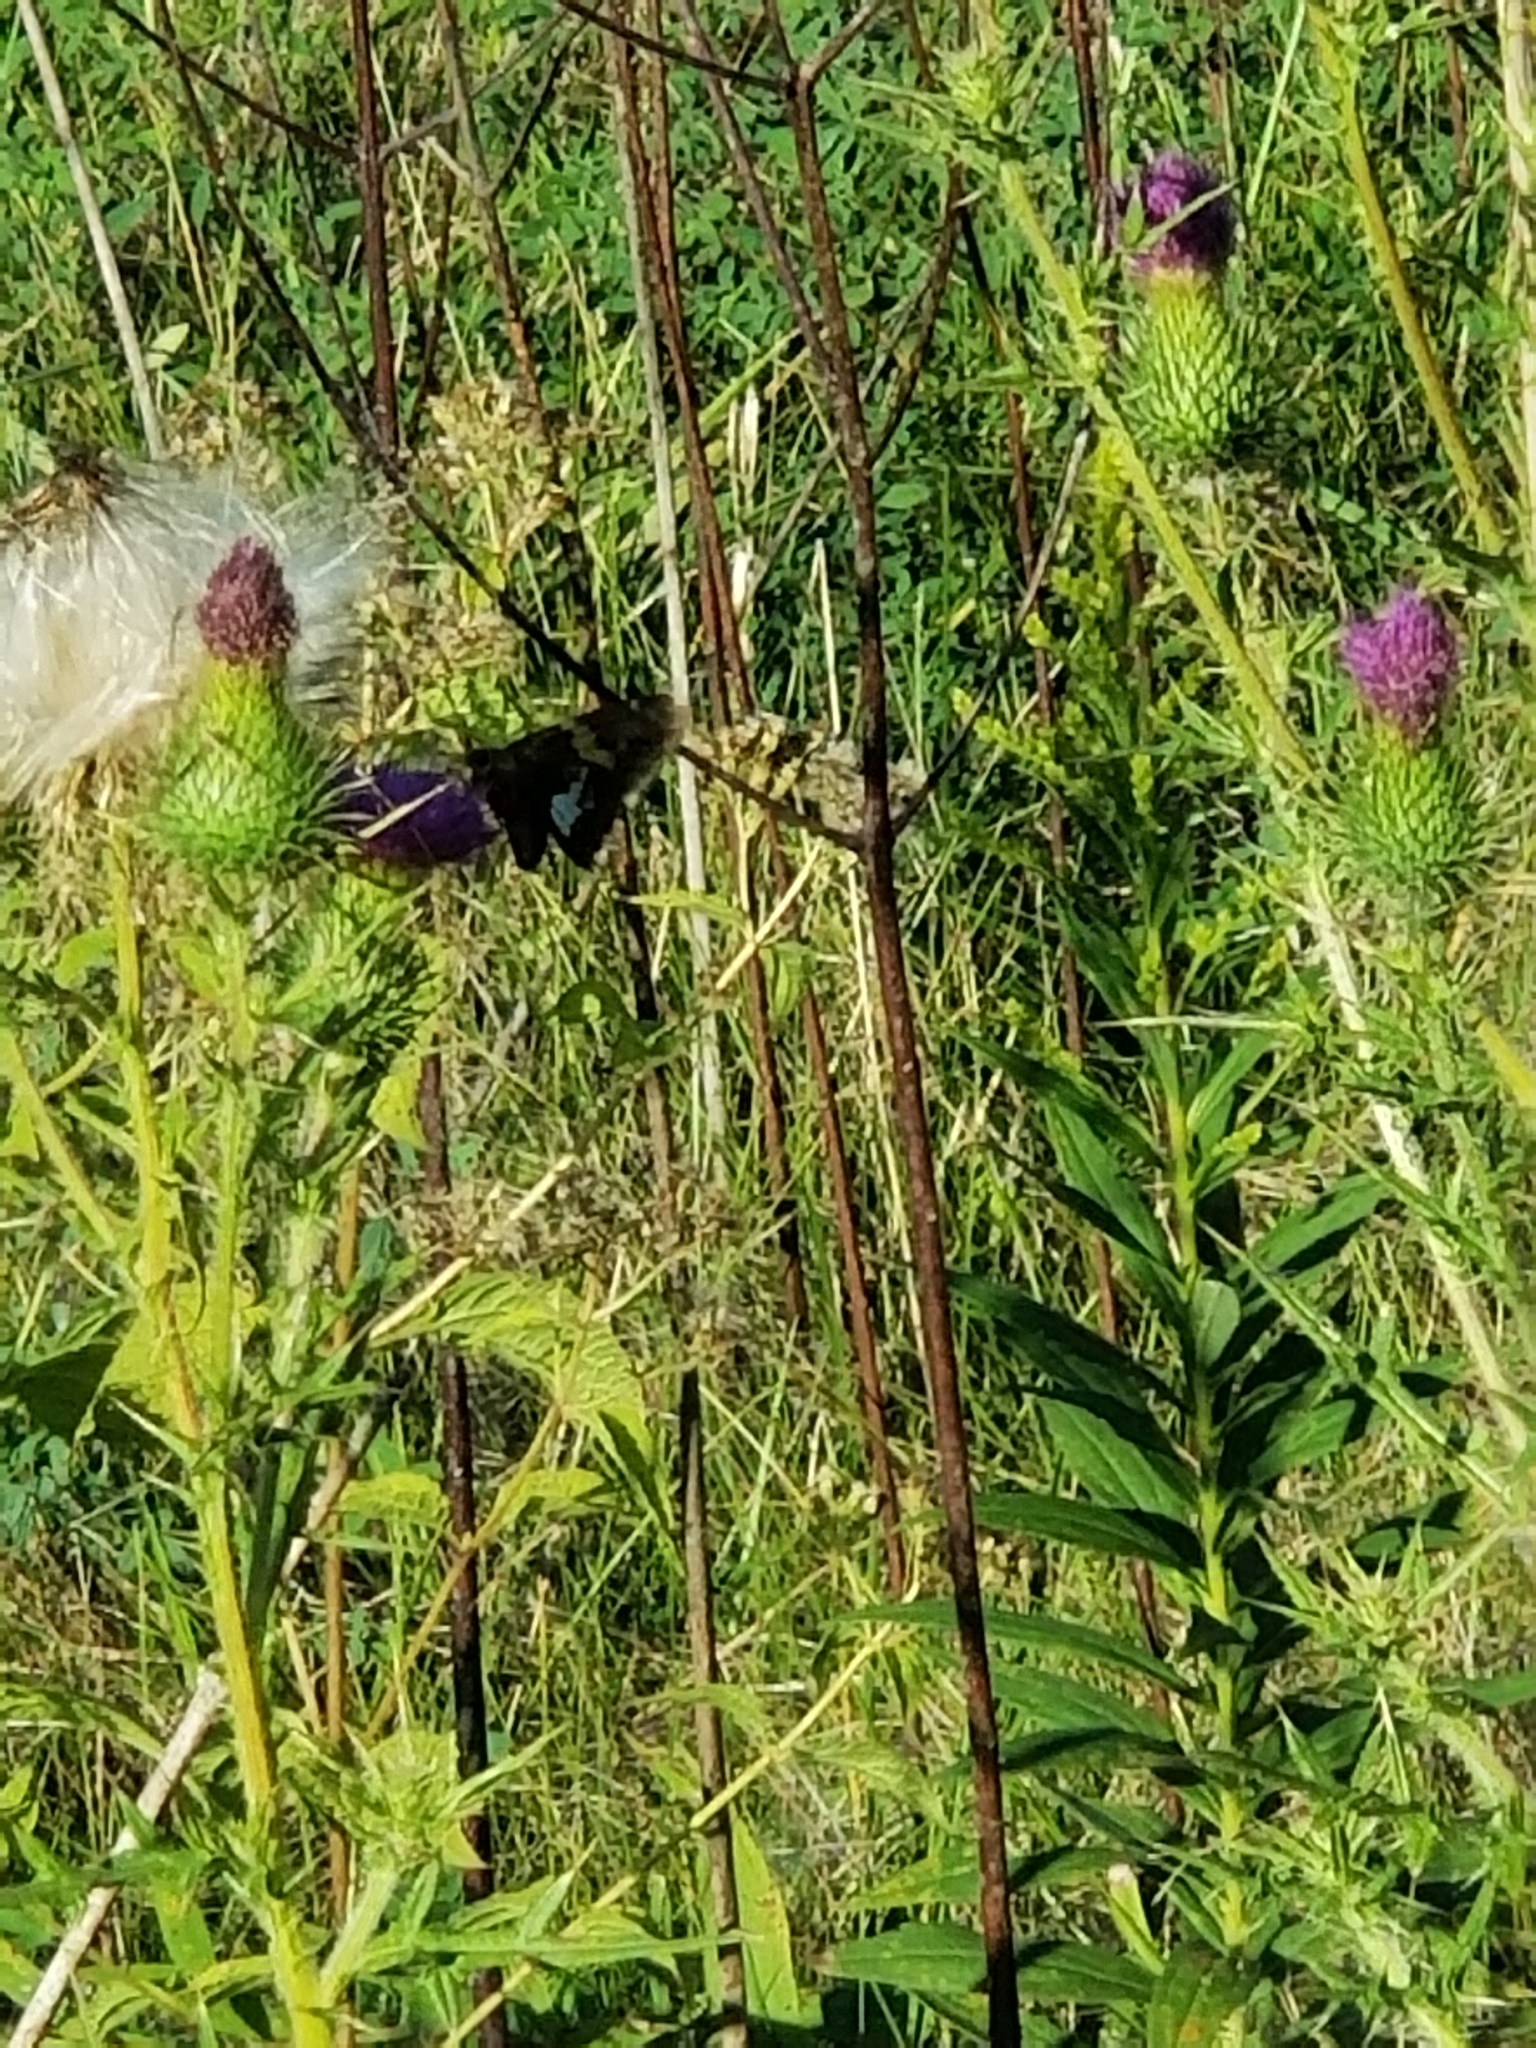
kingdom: Animalia
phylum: Arthropoda
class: Insecta
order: Lepidoptera
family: Hesperiidae
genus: Epargyreus
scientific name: Epargyreus clarus
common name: Silver-spotted skipper
